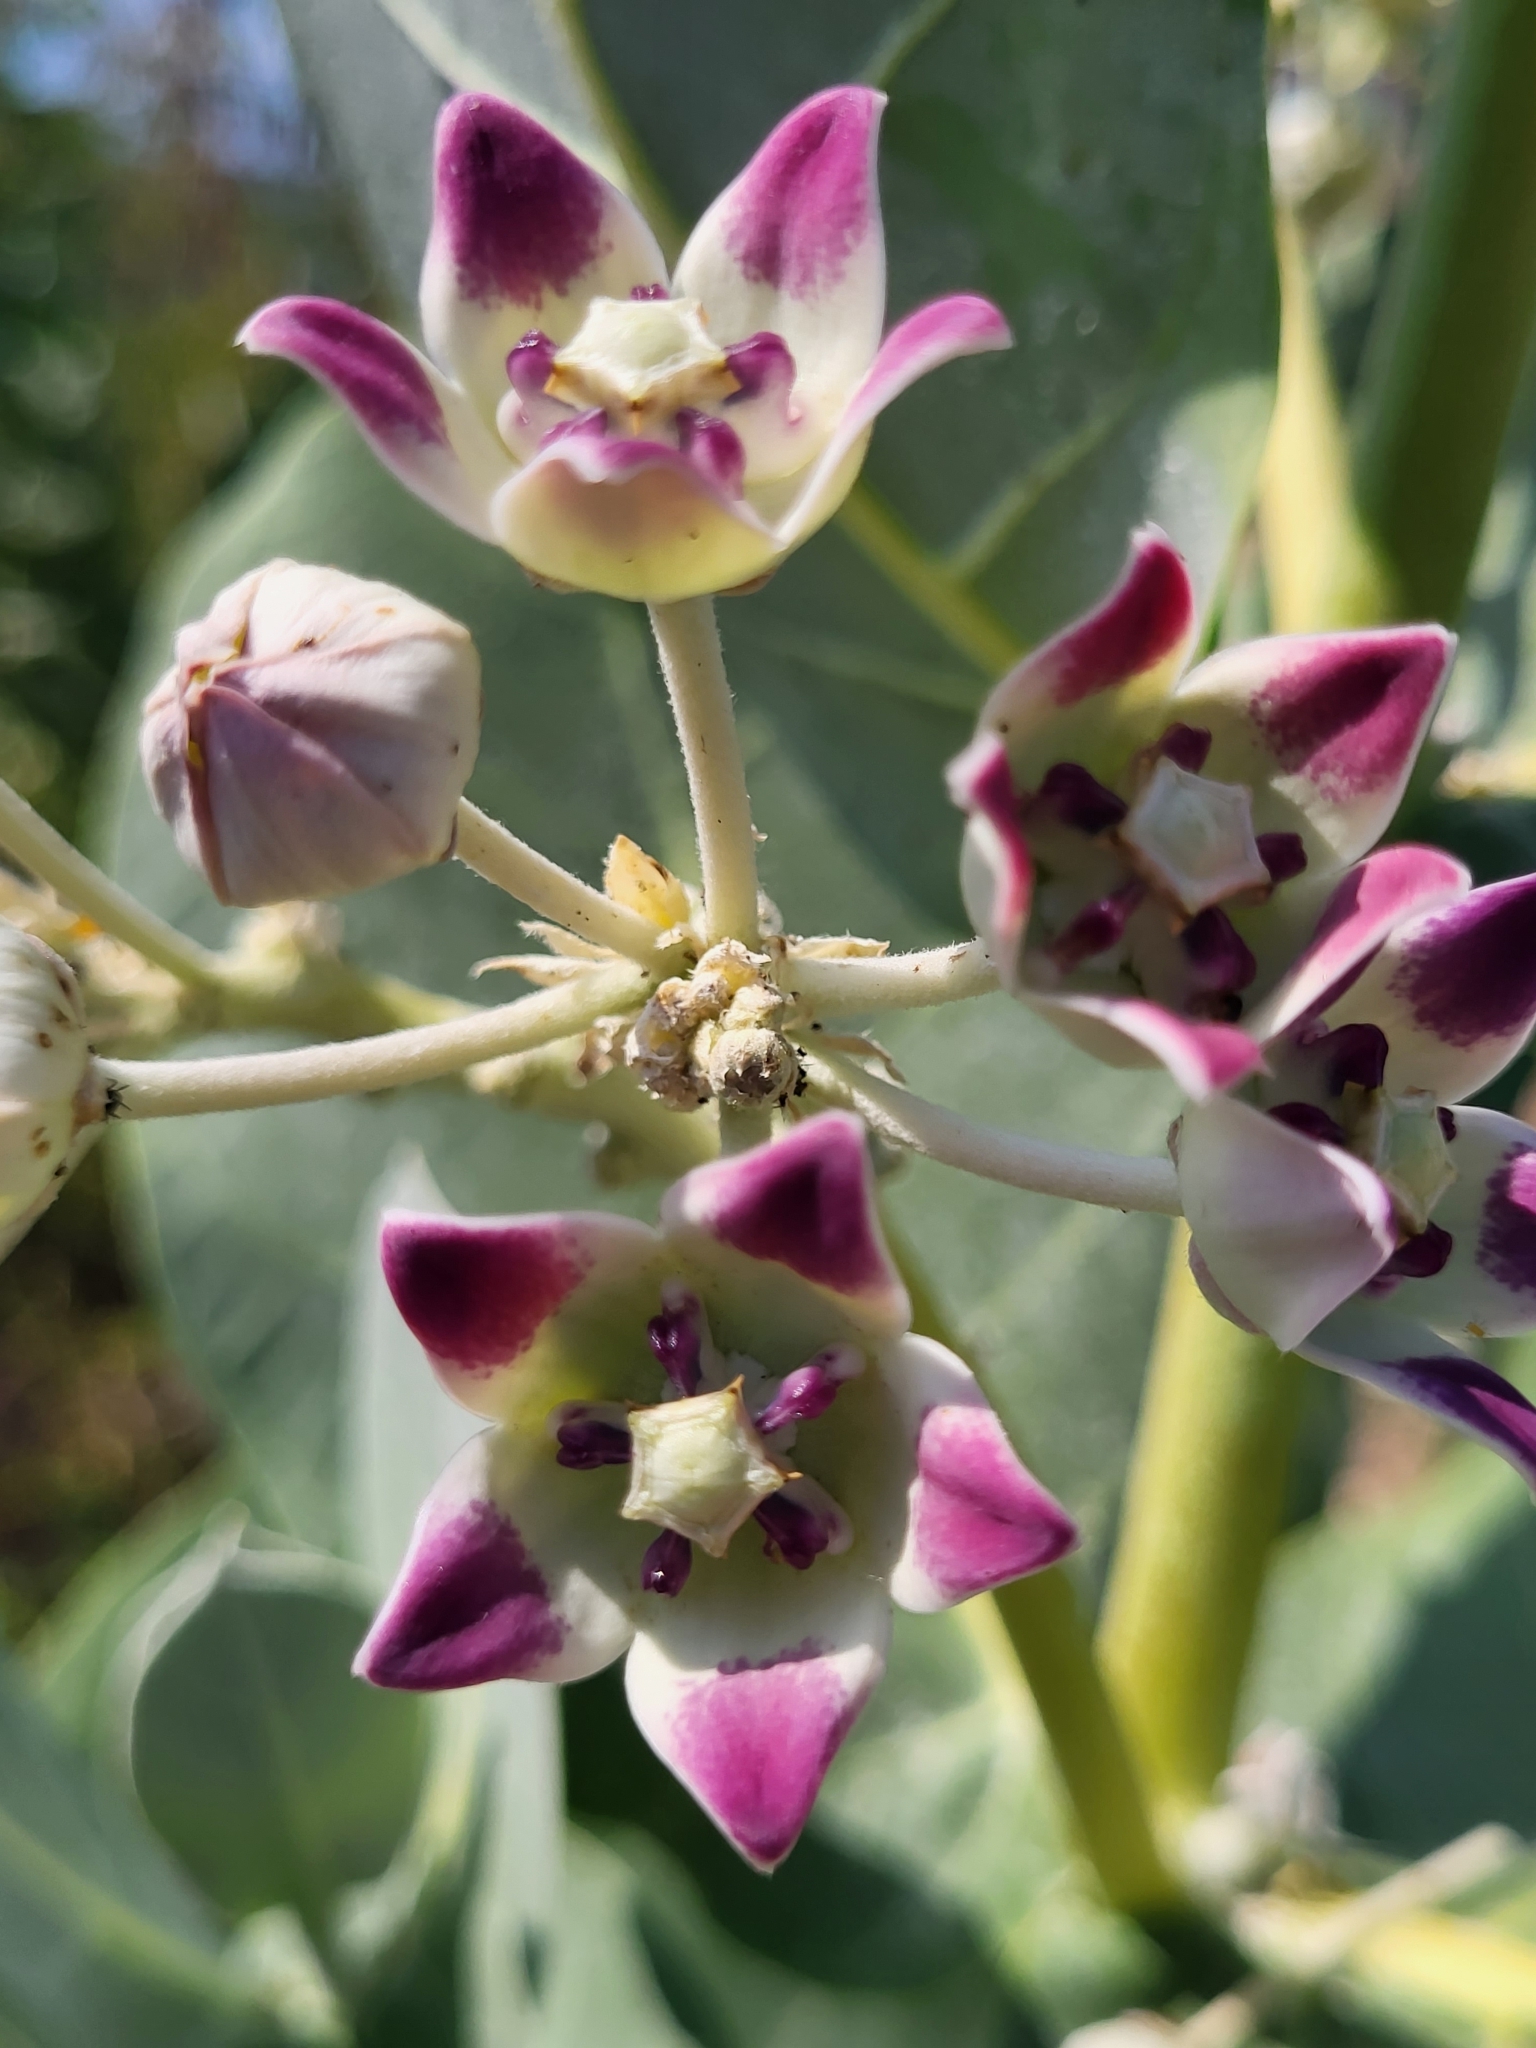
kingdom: Plantae
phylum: Tracheophyta
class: Magnoliopsida
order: Gentianales
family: Apocynaceae
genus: Calotropis
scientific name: Calotropis procera
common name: Roostertree
